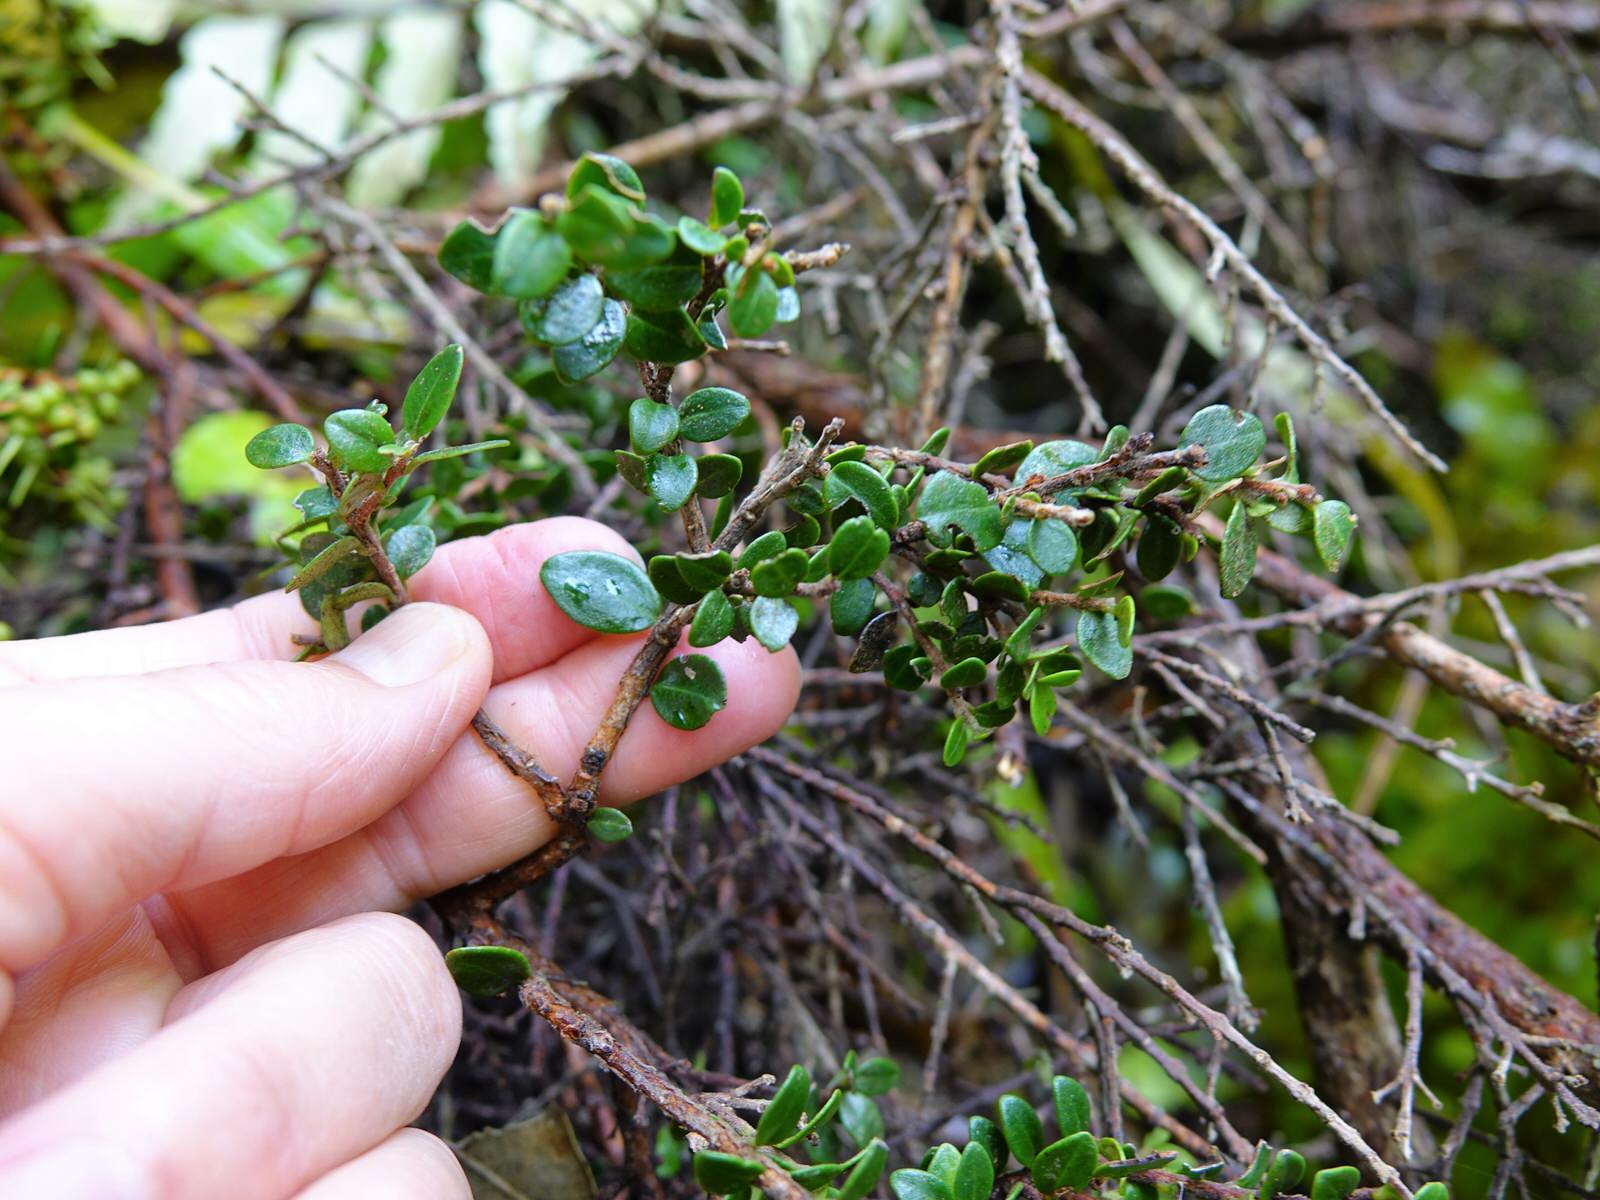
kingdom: Plantae
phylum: Tracheophyta
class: Magnoliopsida
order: Myrtales
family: Myrtaceae
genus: Metrosideros
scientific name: Metrosideros perforata
